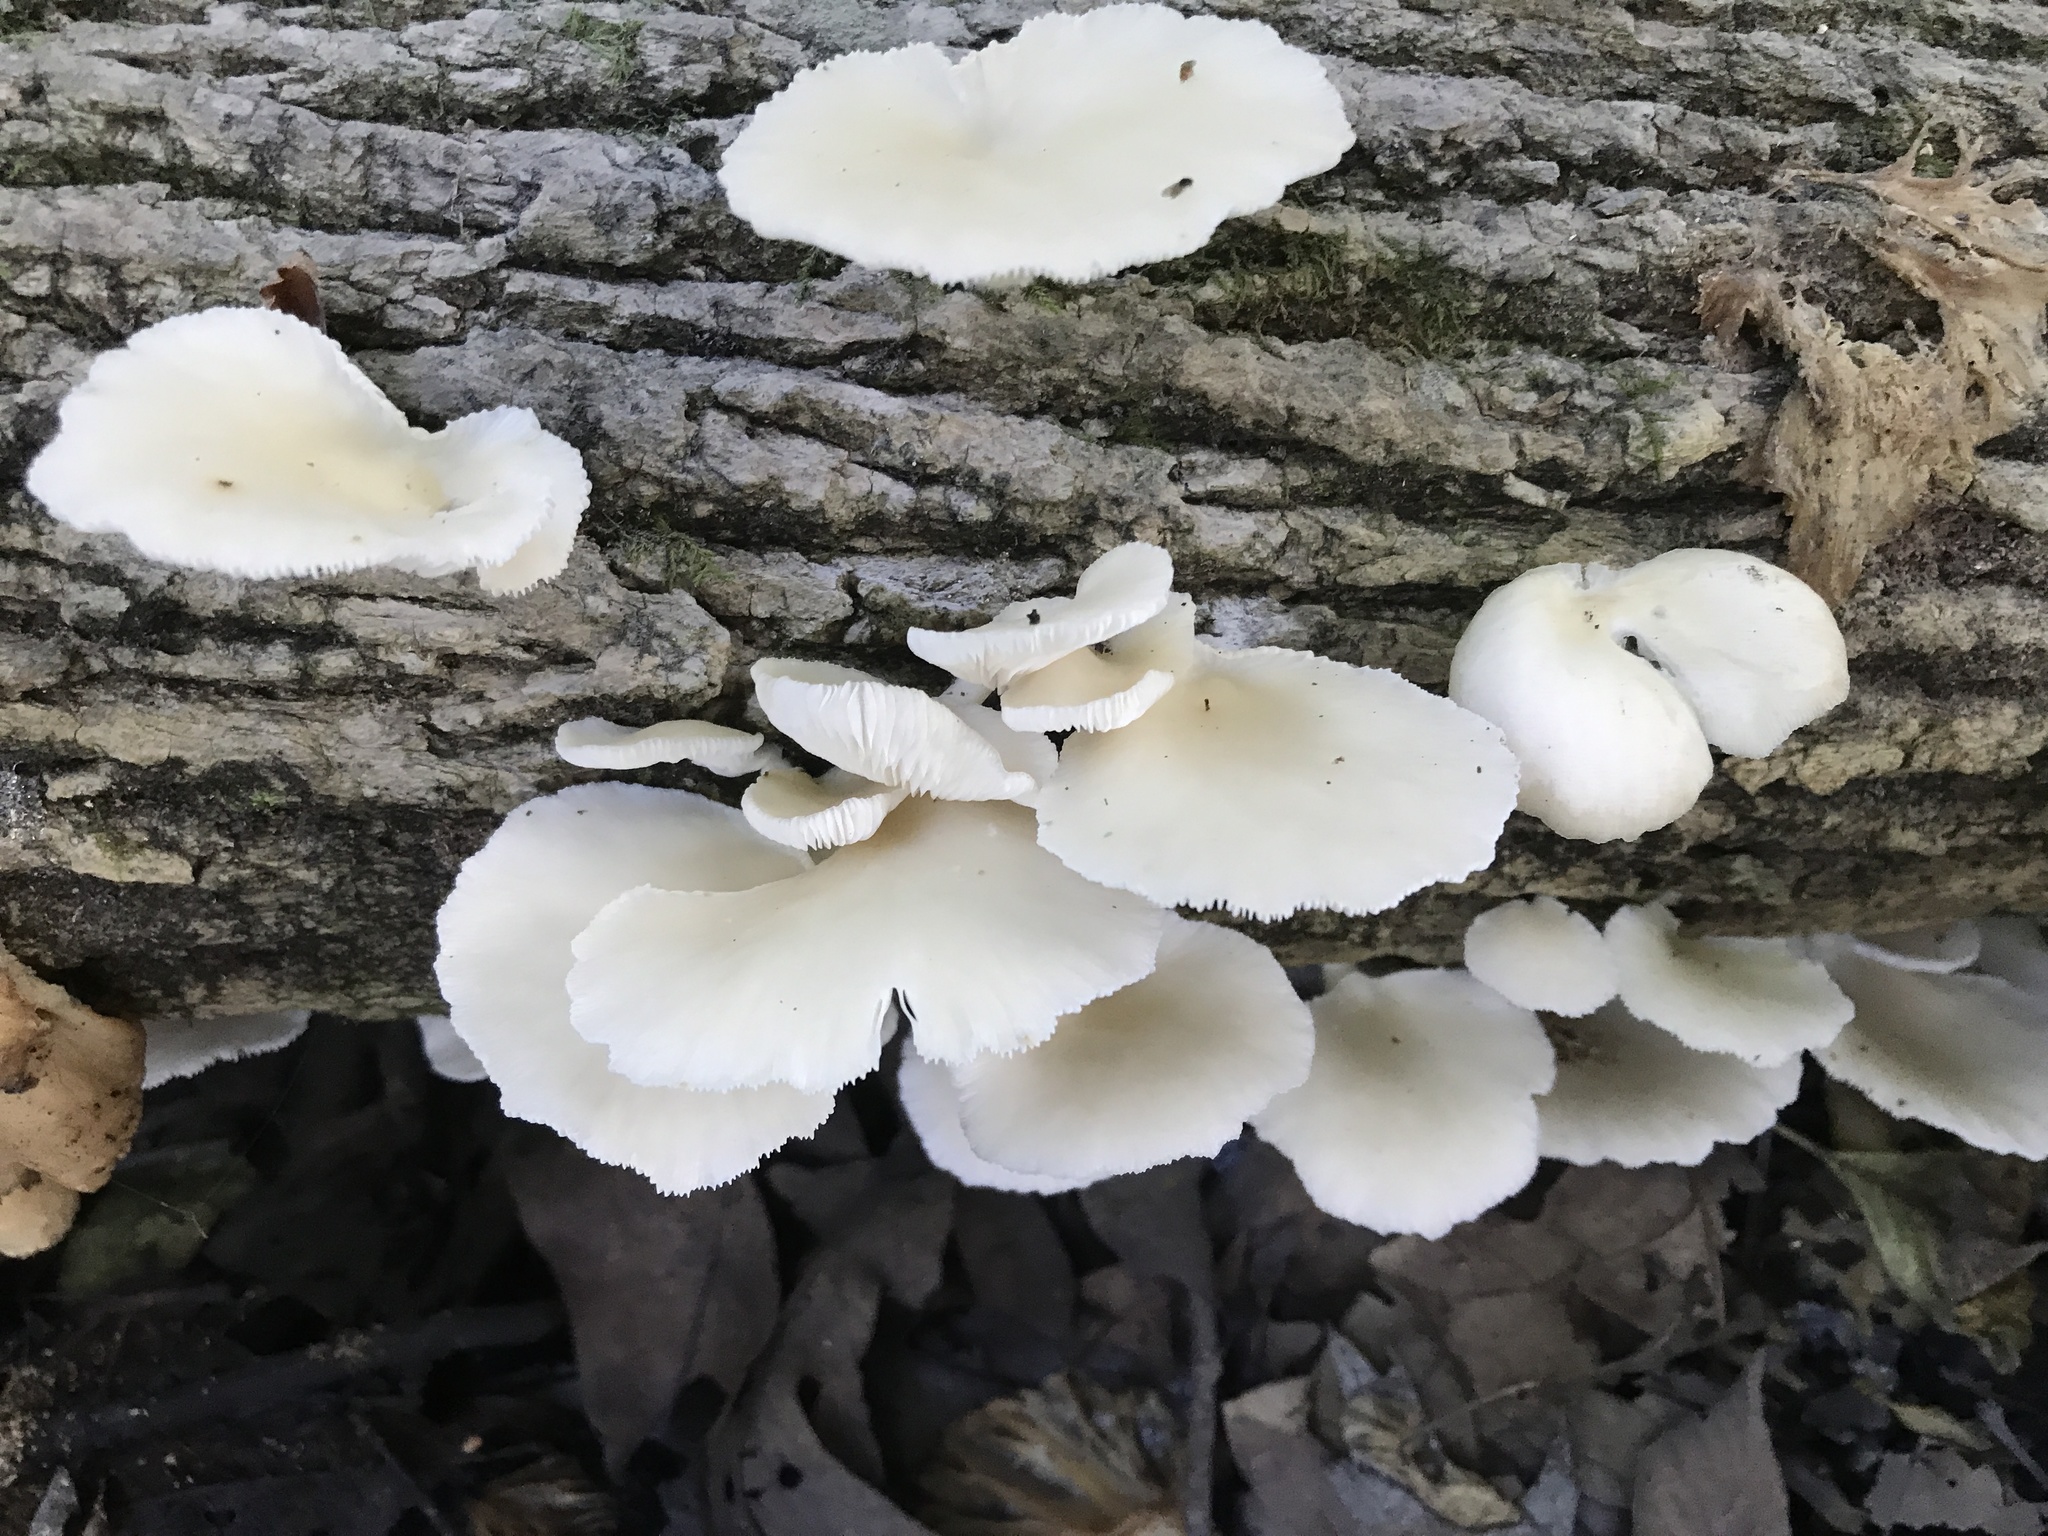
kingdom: Fungi
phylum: Basidiomycota
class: Agaricomycetes
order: Agaricales
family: Pleurotaceae
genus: Pleurotus
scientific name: Pleurotus pulmonarius
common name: Pale oyster
